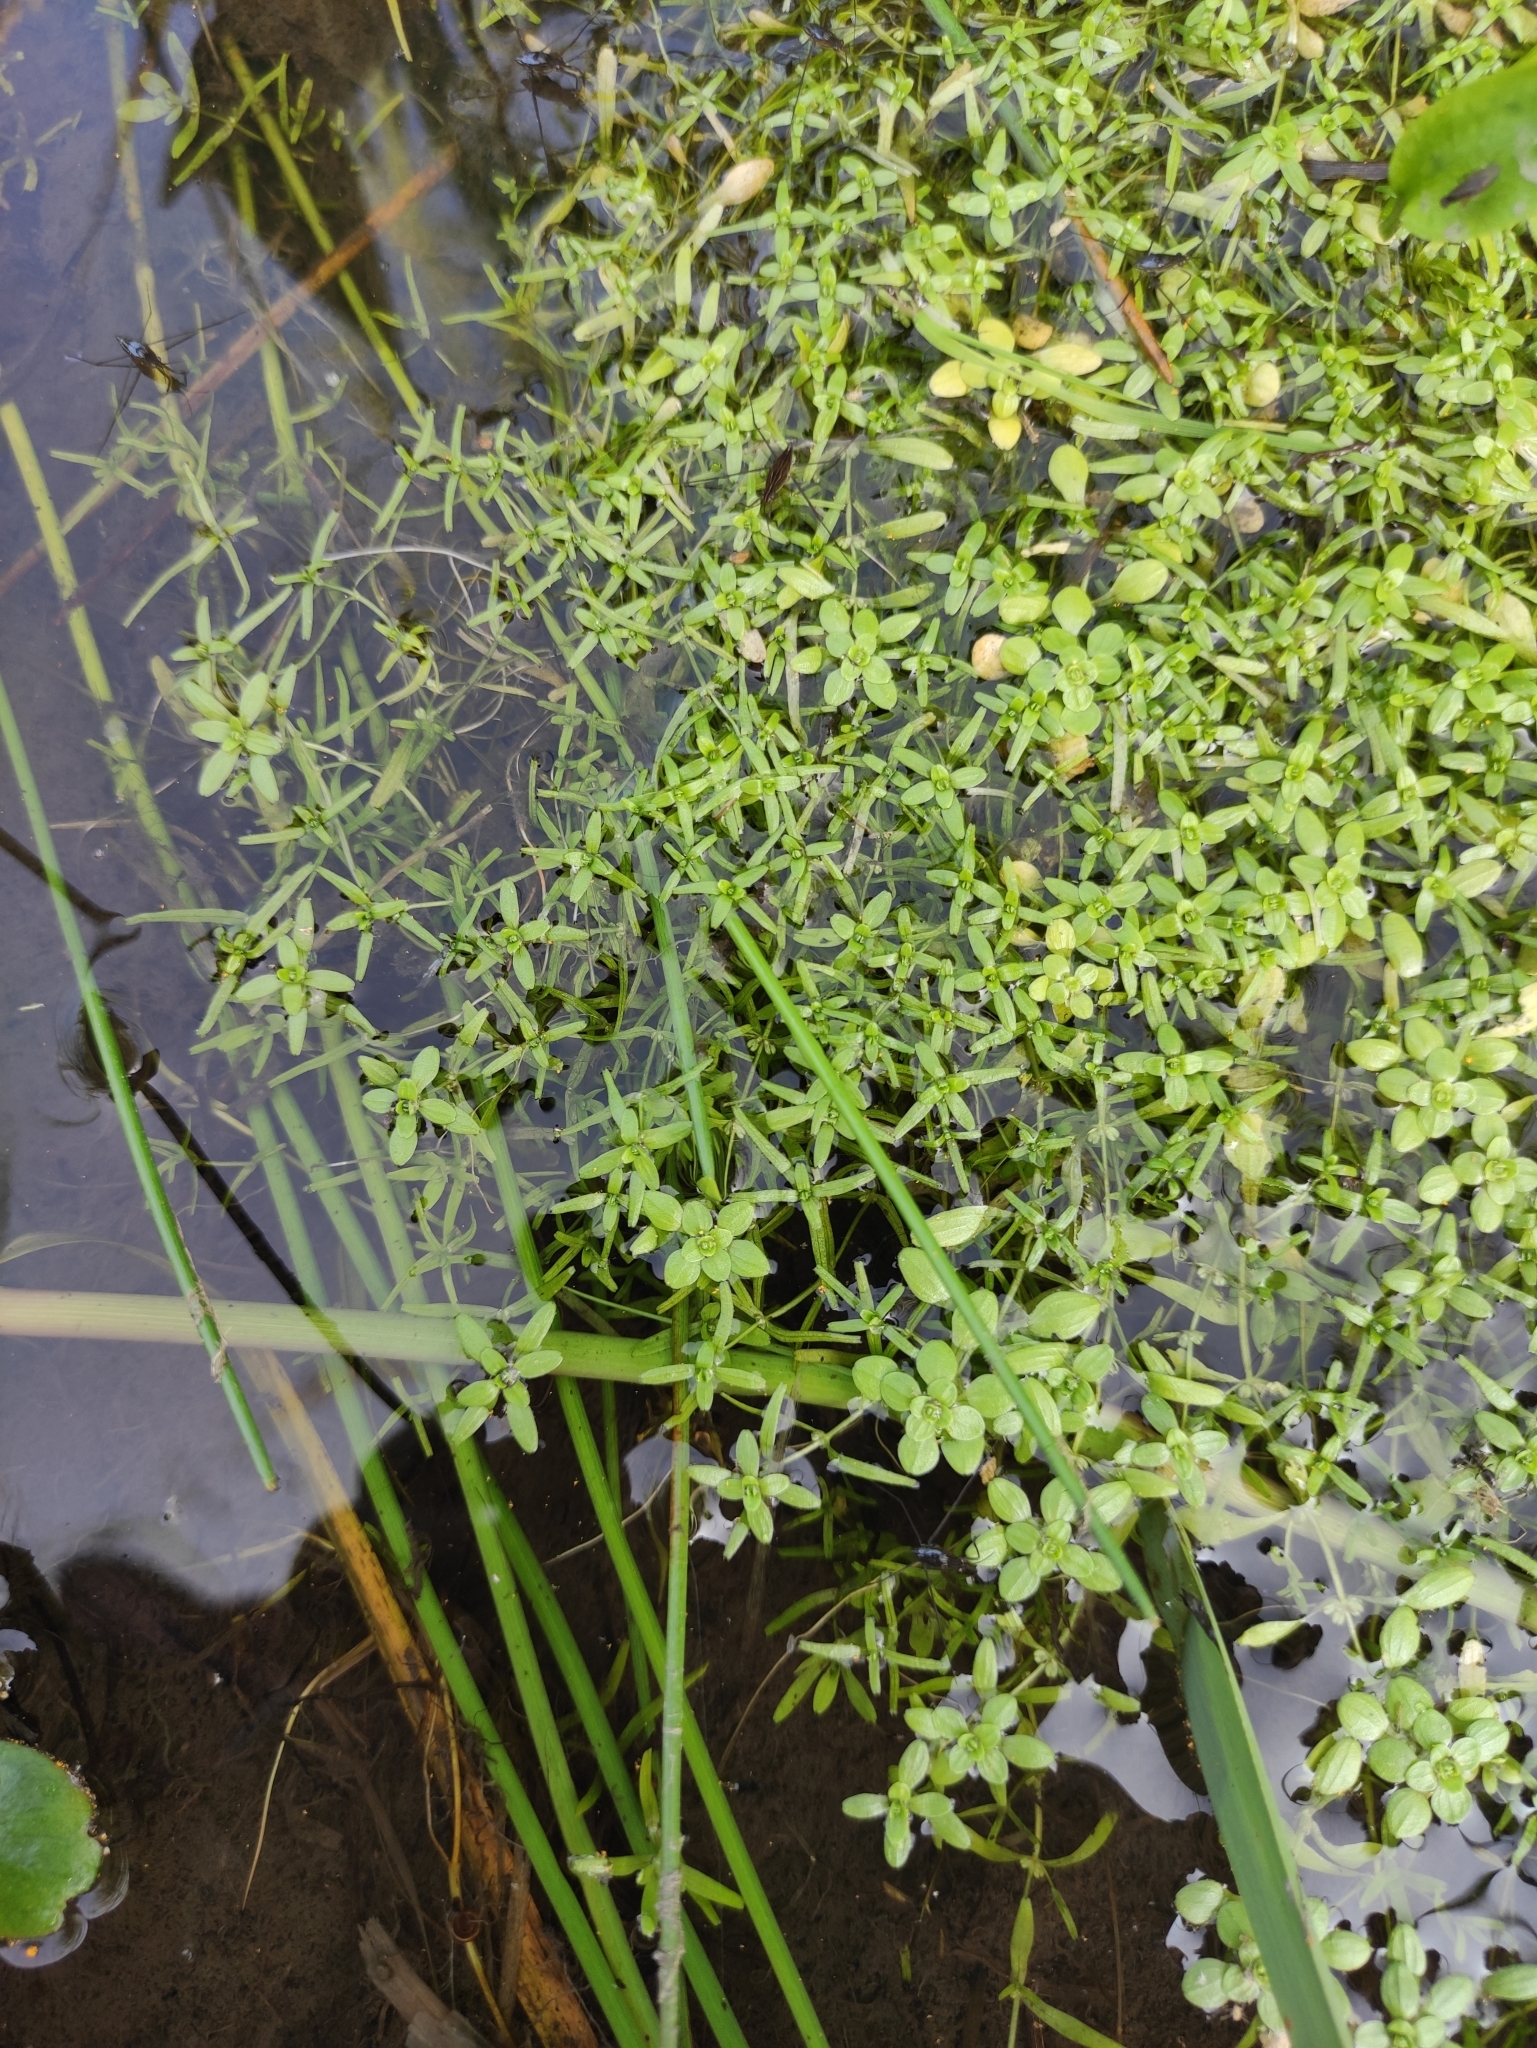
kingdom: Plantae
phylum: Tracheophyta
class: Magnoliopsida
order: Lamiales
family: Plantaginaceae
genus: Callitriche
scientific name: Callitriche palustris
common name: Spring water-starwort
